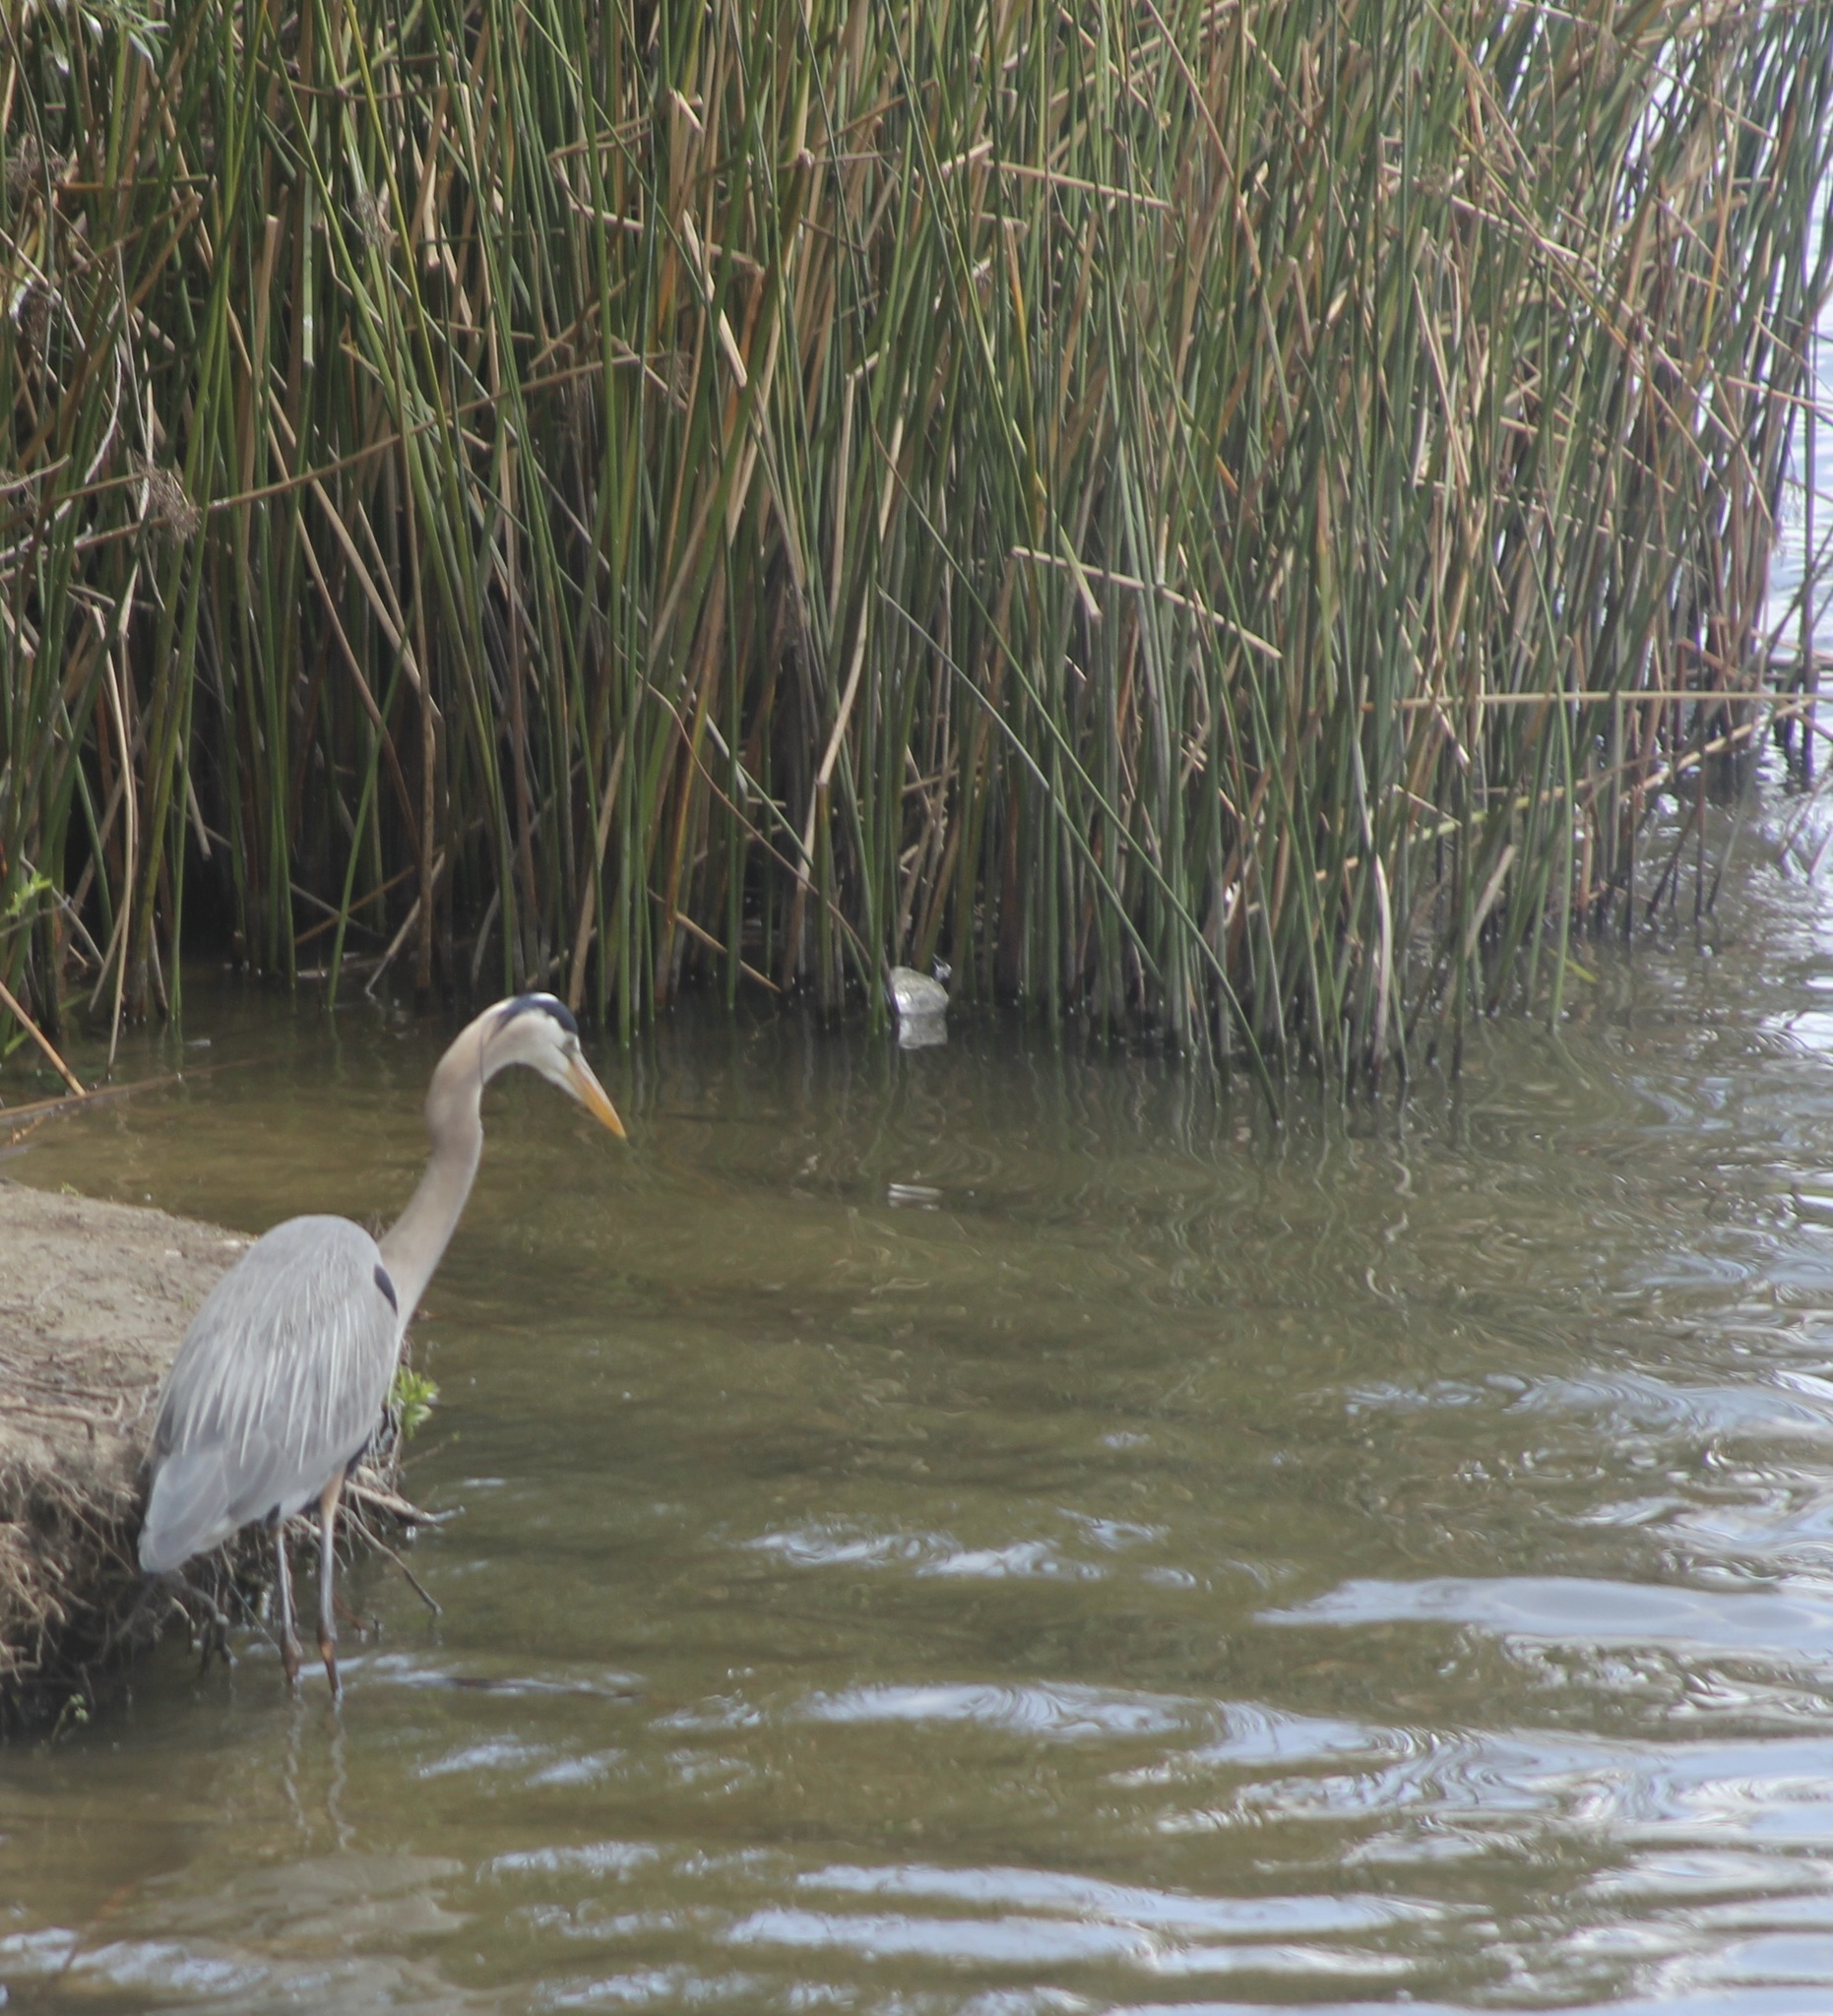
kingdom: Animalia
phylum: Chordata
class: Aves
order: Pelecaniformes
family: Ardeidae
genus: Ardea
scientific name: Ardea herodias
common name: Great blue heron
